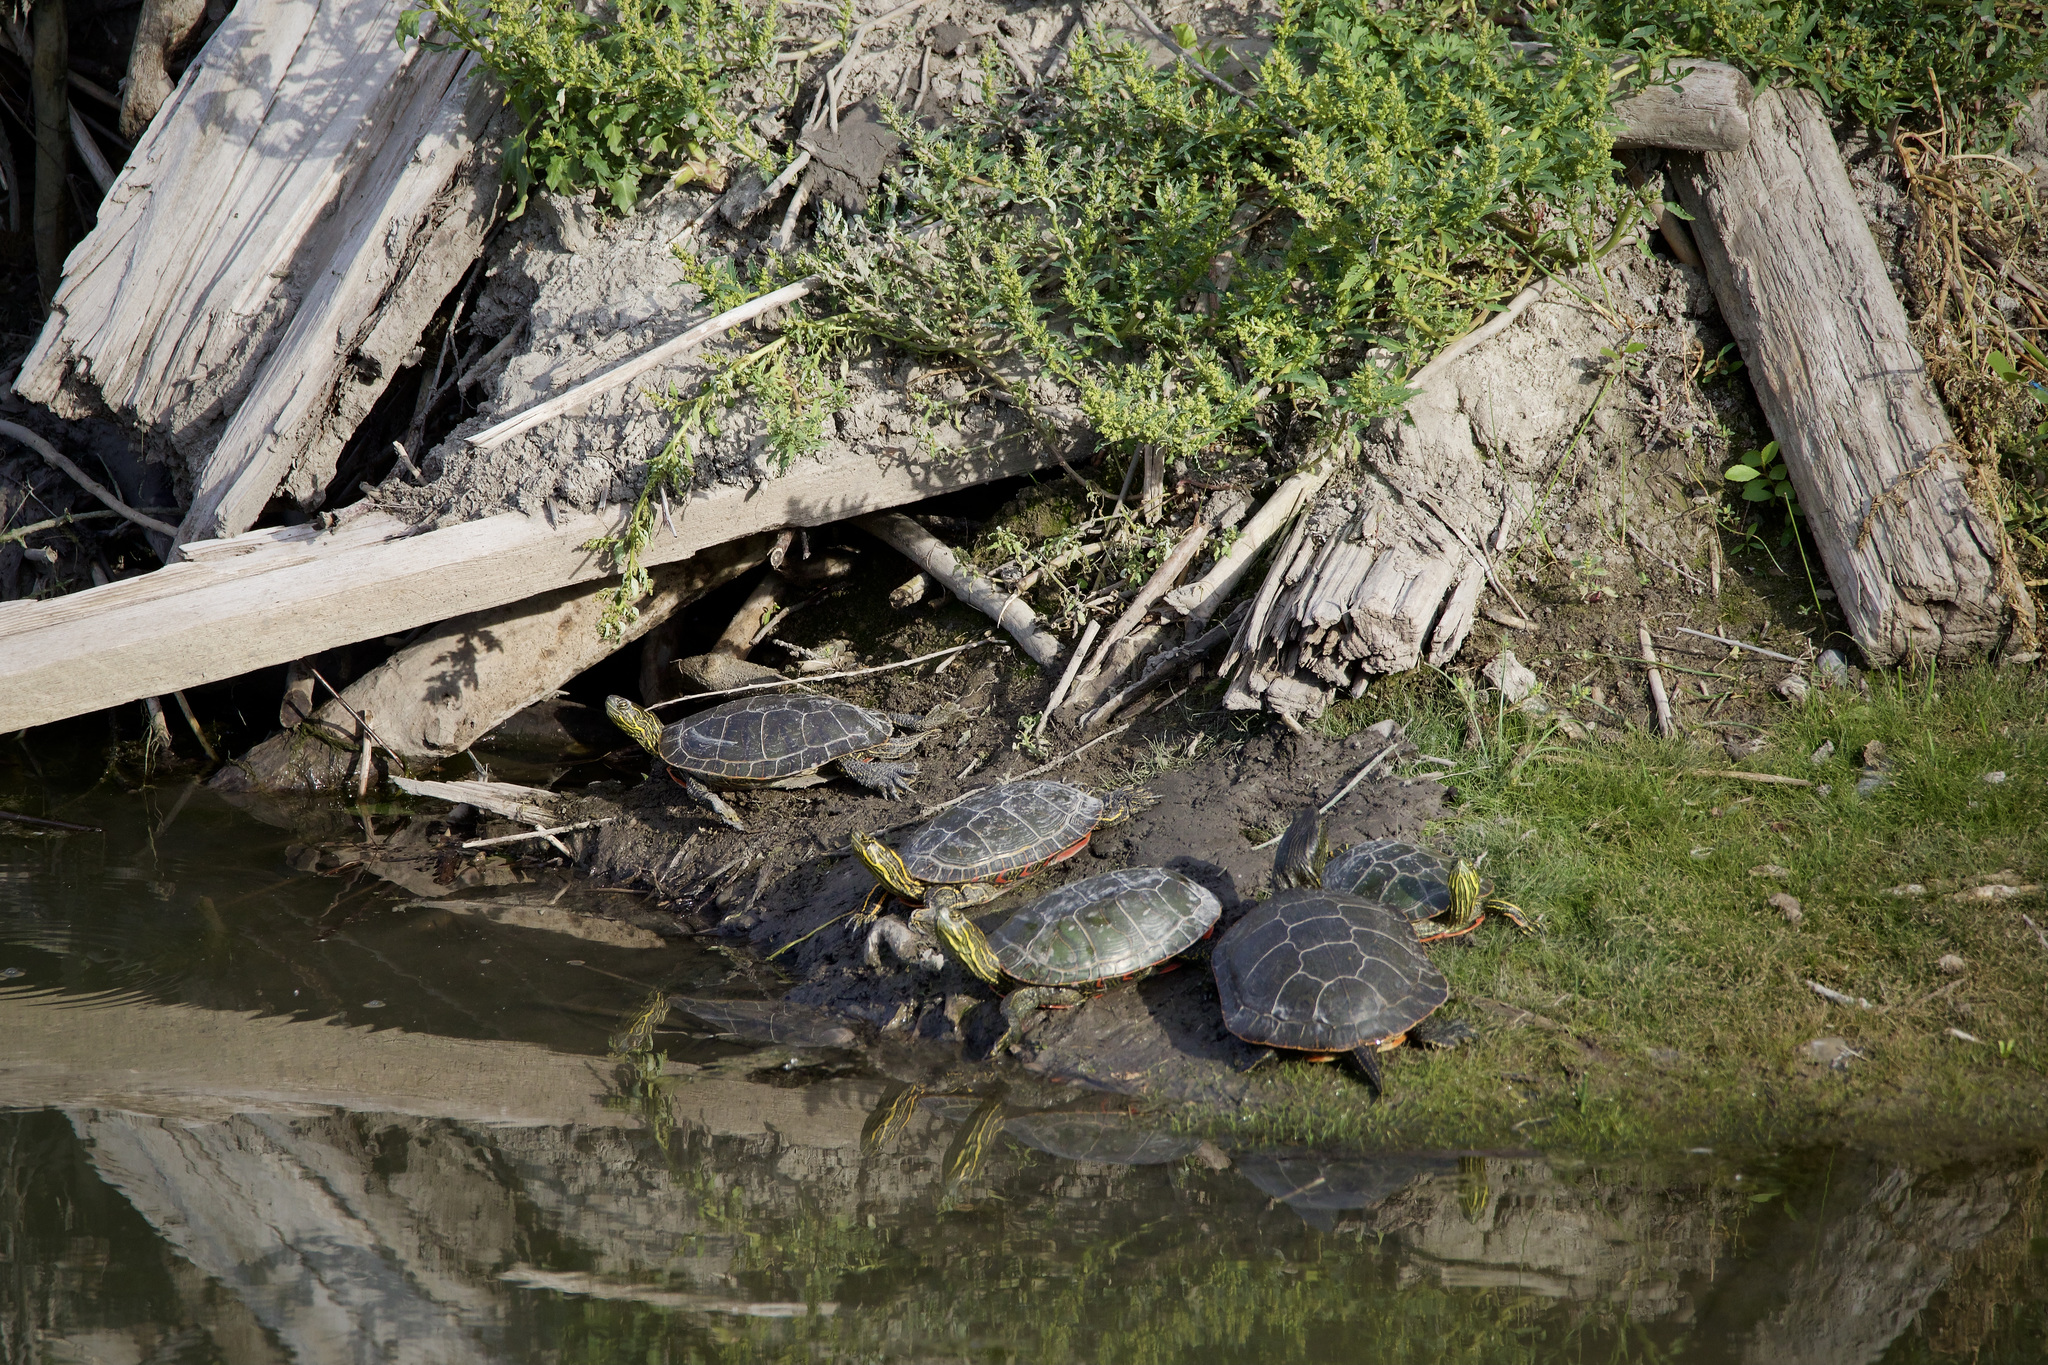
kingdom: Animalia
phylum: Chordata
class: Testudines
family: Emydidae
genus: Chrysemys
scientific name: Chrysemys picta
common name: Painted turtle
